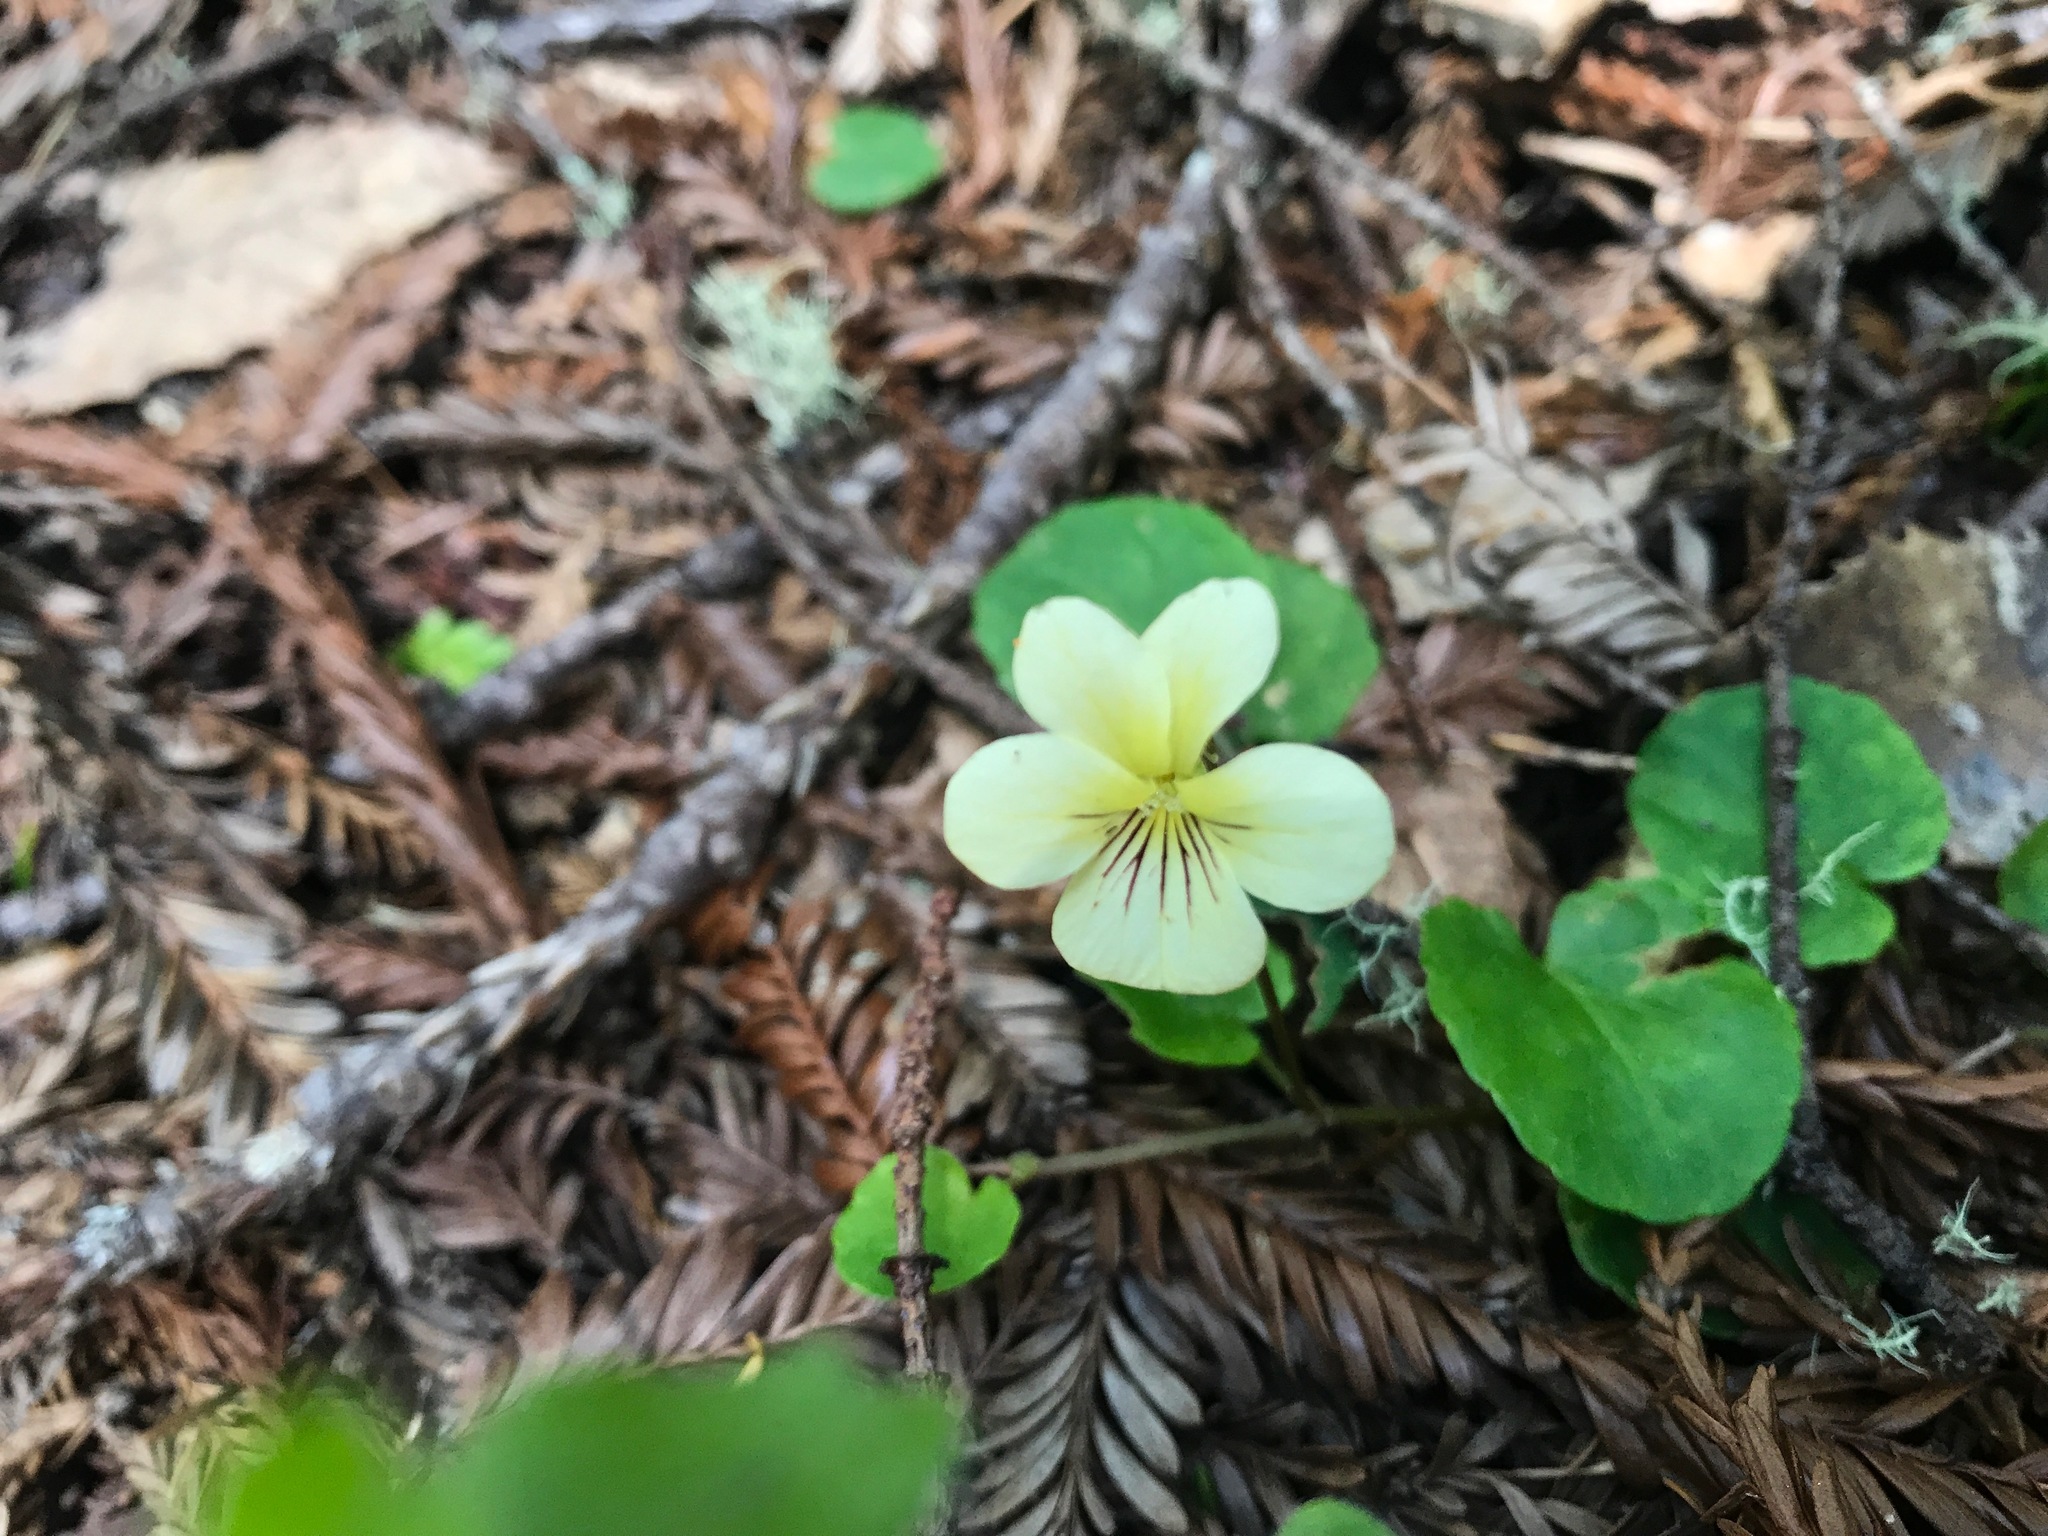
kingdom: Plantae
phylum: Tracheophyta
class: Magnoliopsida
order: Malpighiales
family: Violaceae
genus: Viola
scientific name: Viola sempervirens
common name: Evergreen violet
